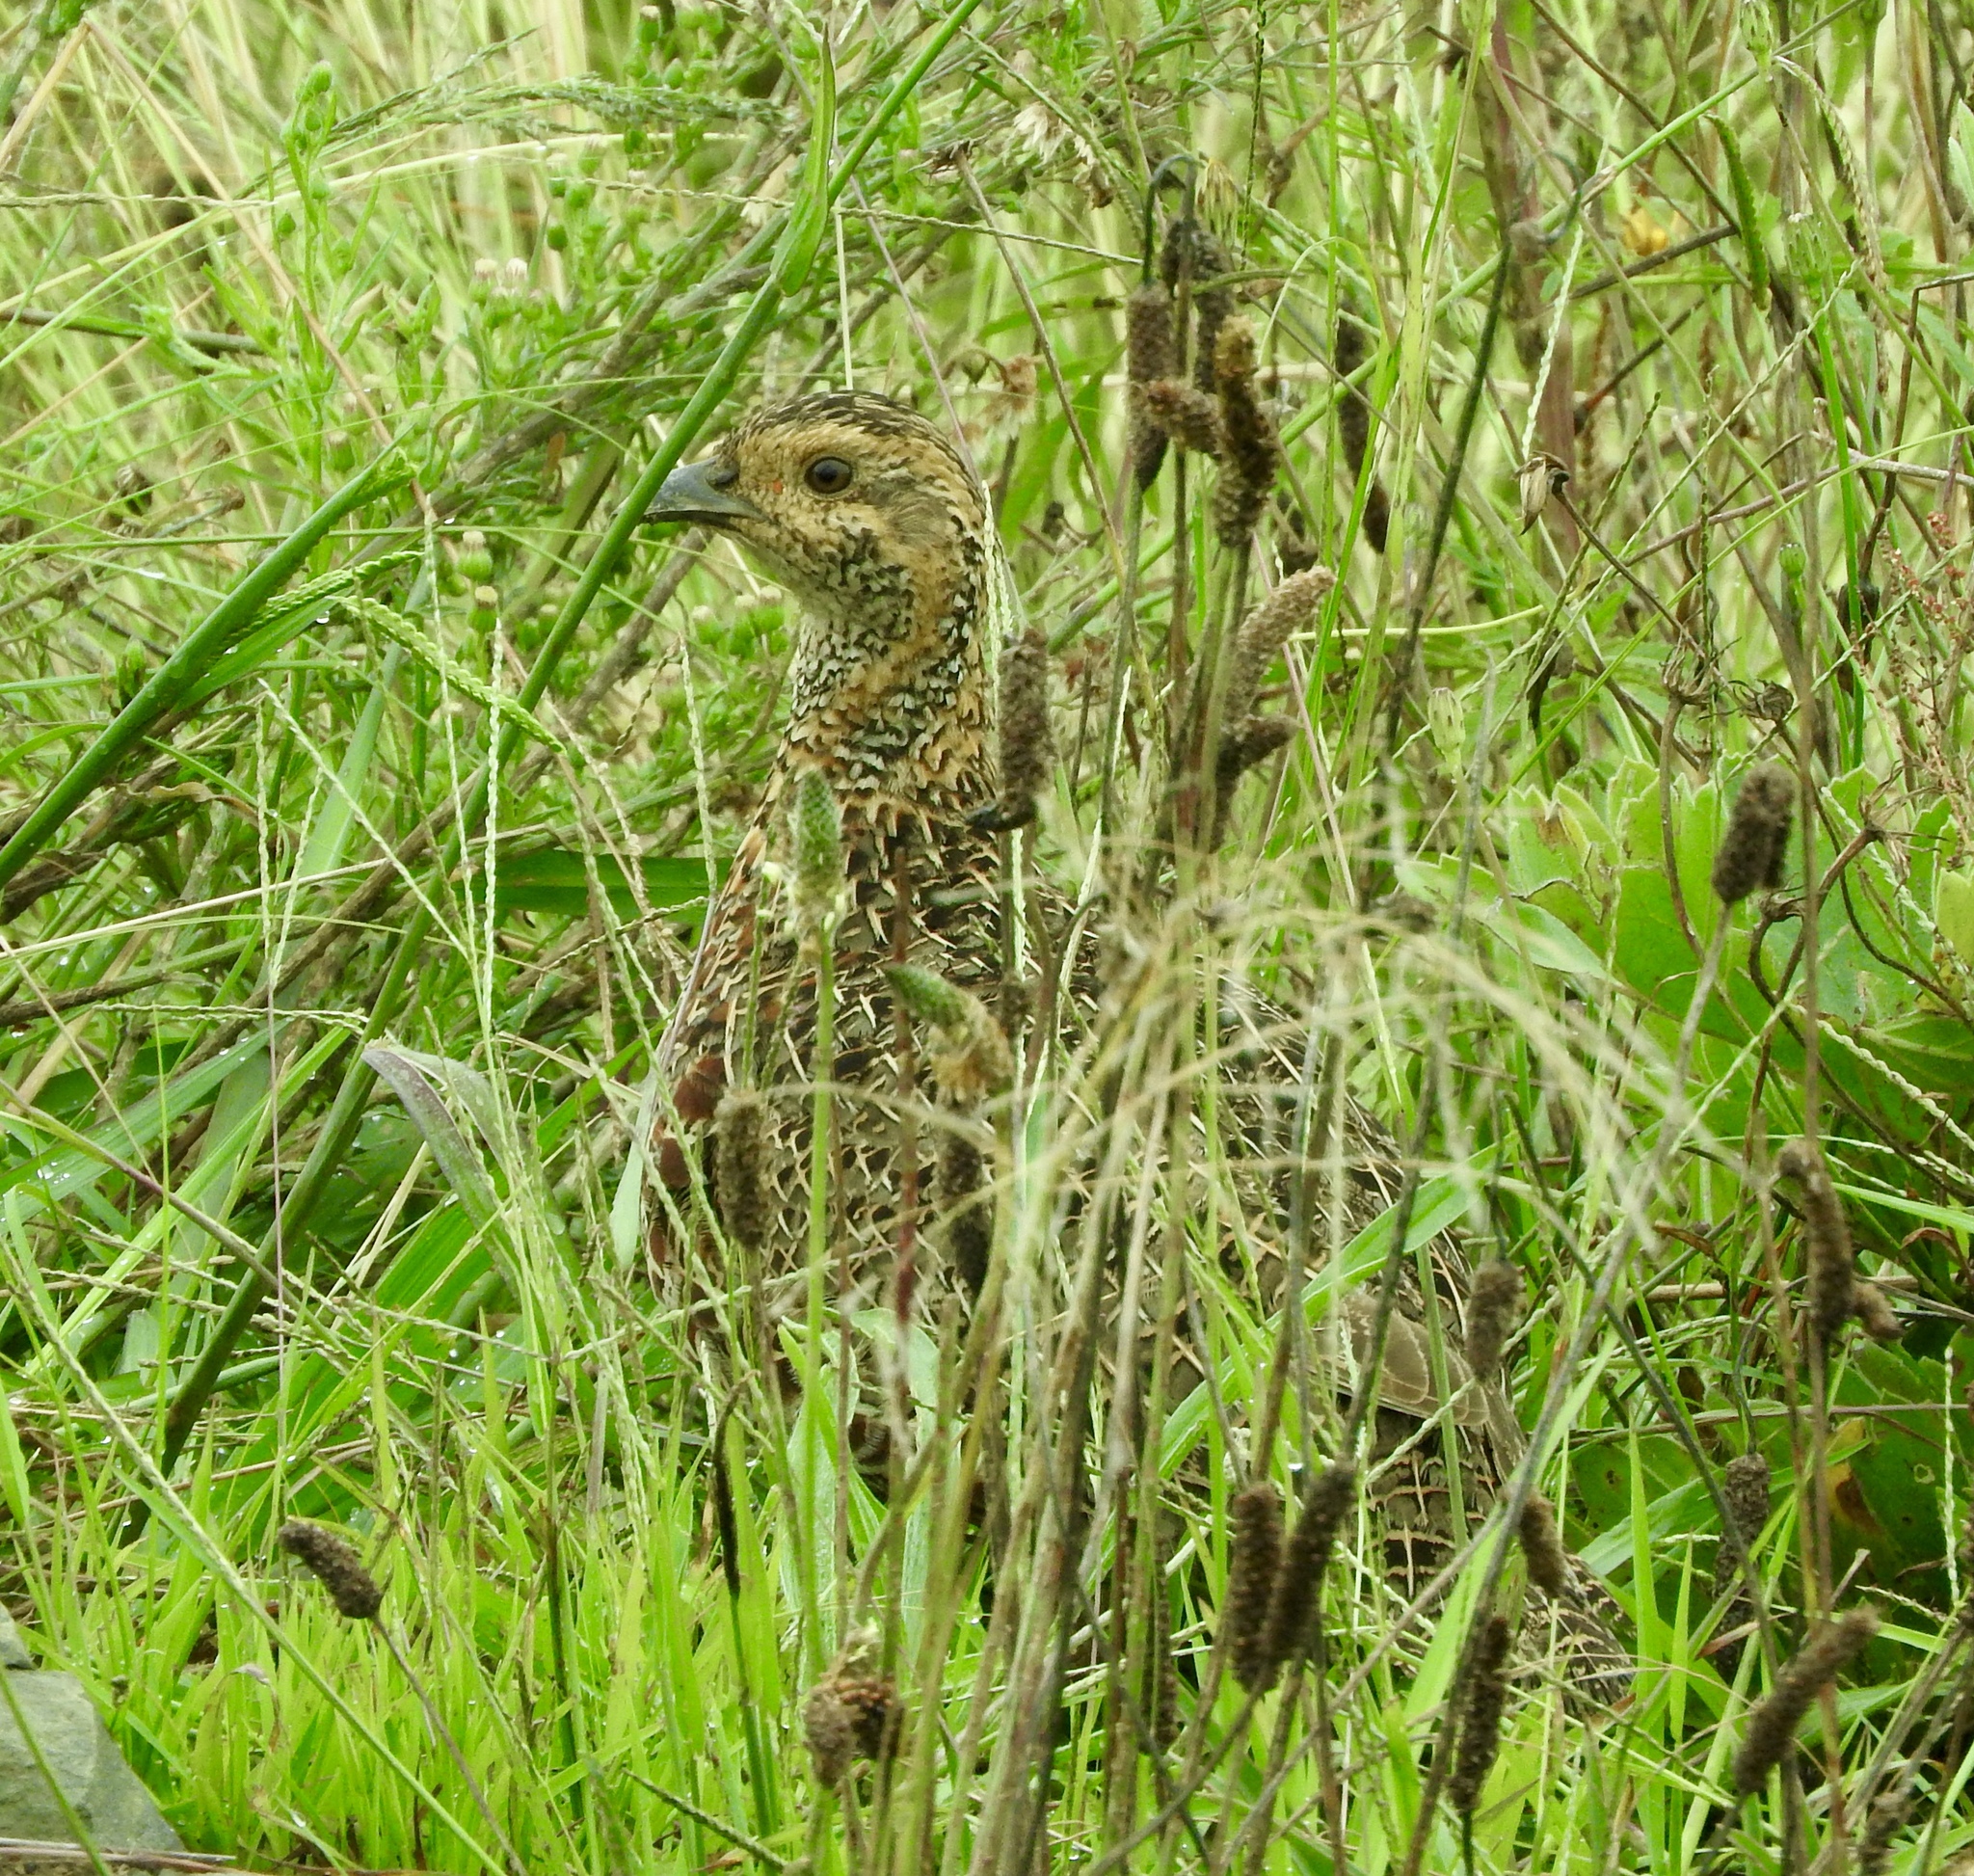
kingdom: Animalia
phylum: Chordata
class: Aves
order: Galliformes
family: Phasianidae
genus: Scleroptila
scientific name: Scleroptila afra
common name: Grey-winged francolin
